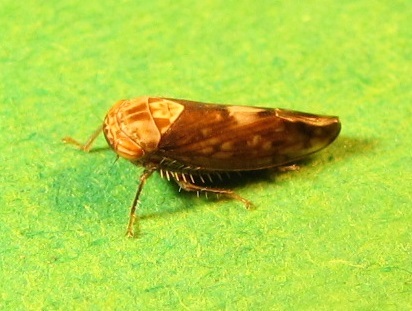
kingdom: Animalia
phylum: Arthropoda
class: Insecta
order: Hemiptera
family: Cicadellidae
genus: Eutettix
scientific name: Eutettix luridus
